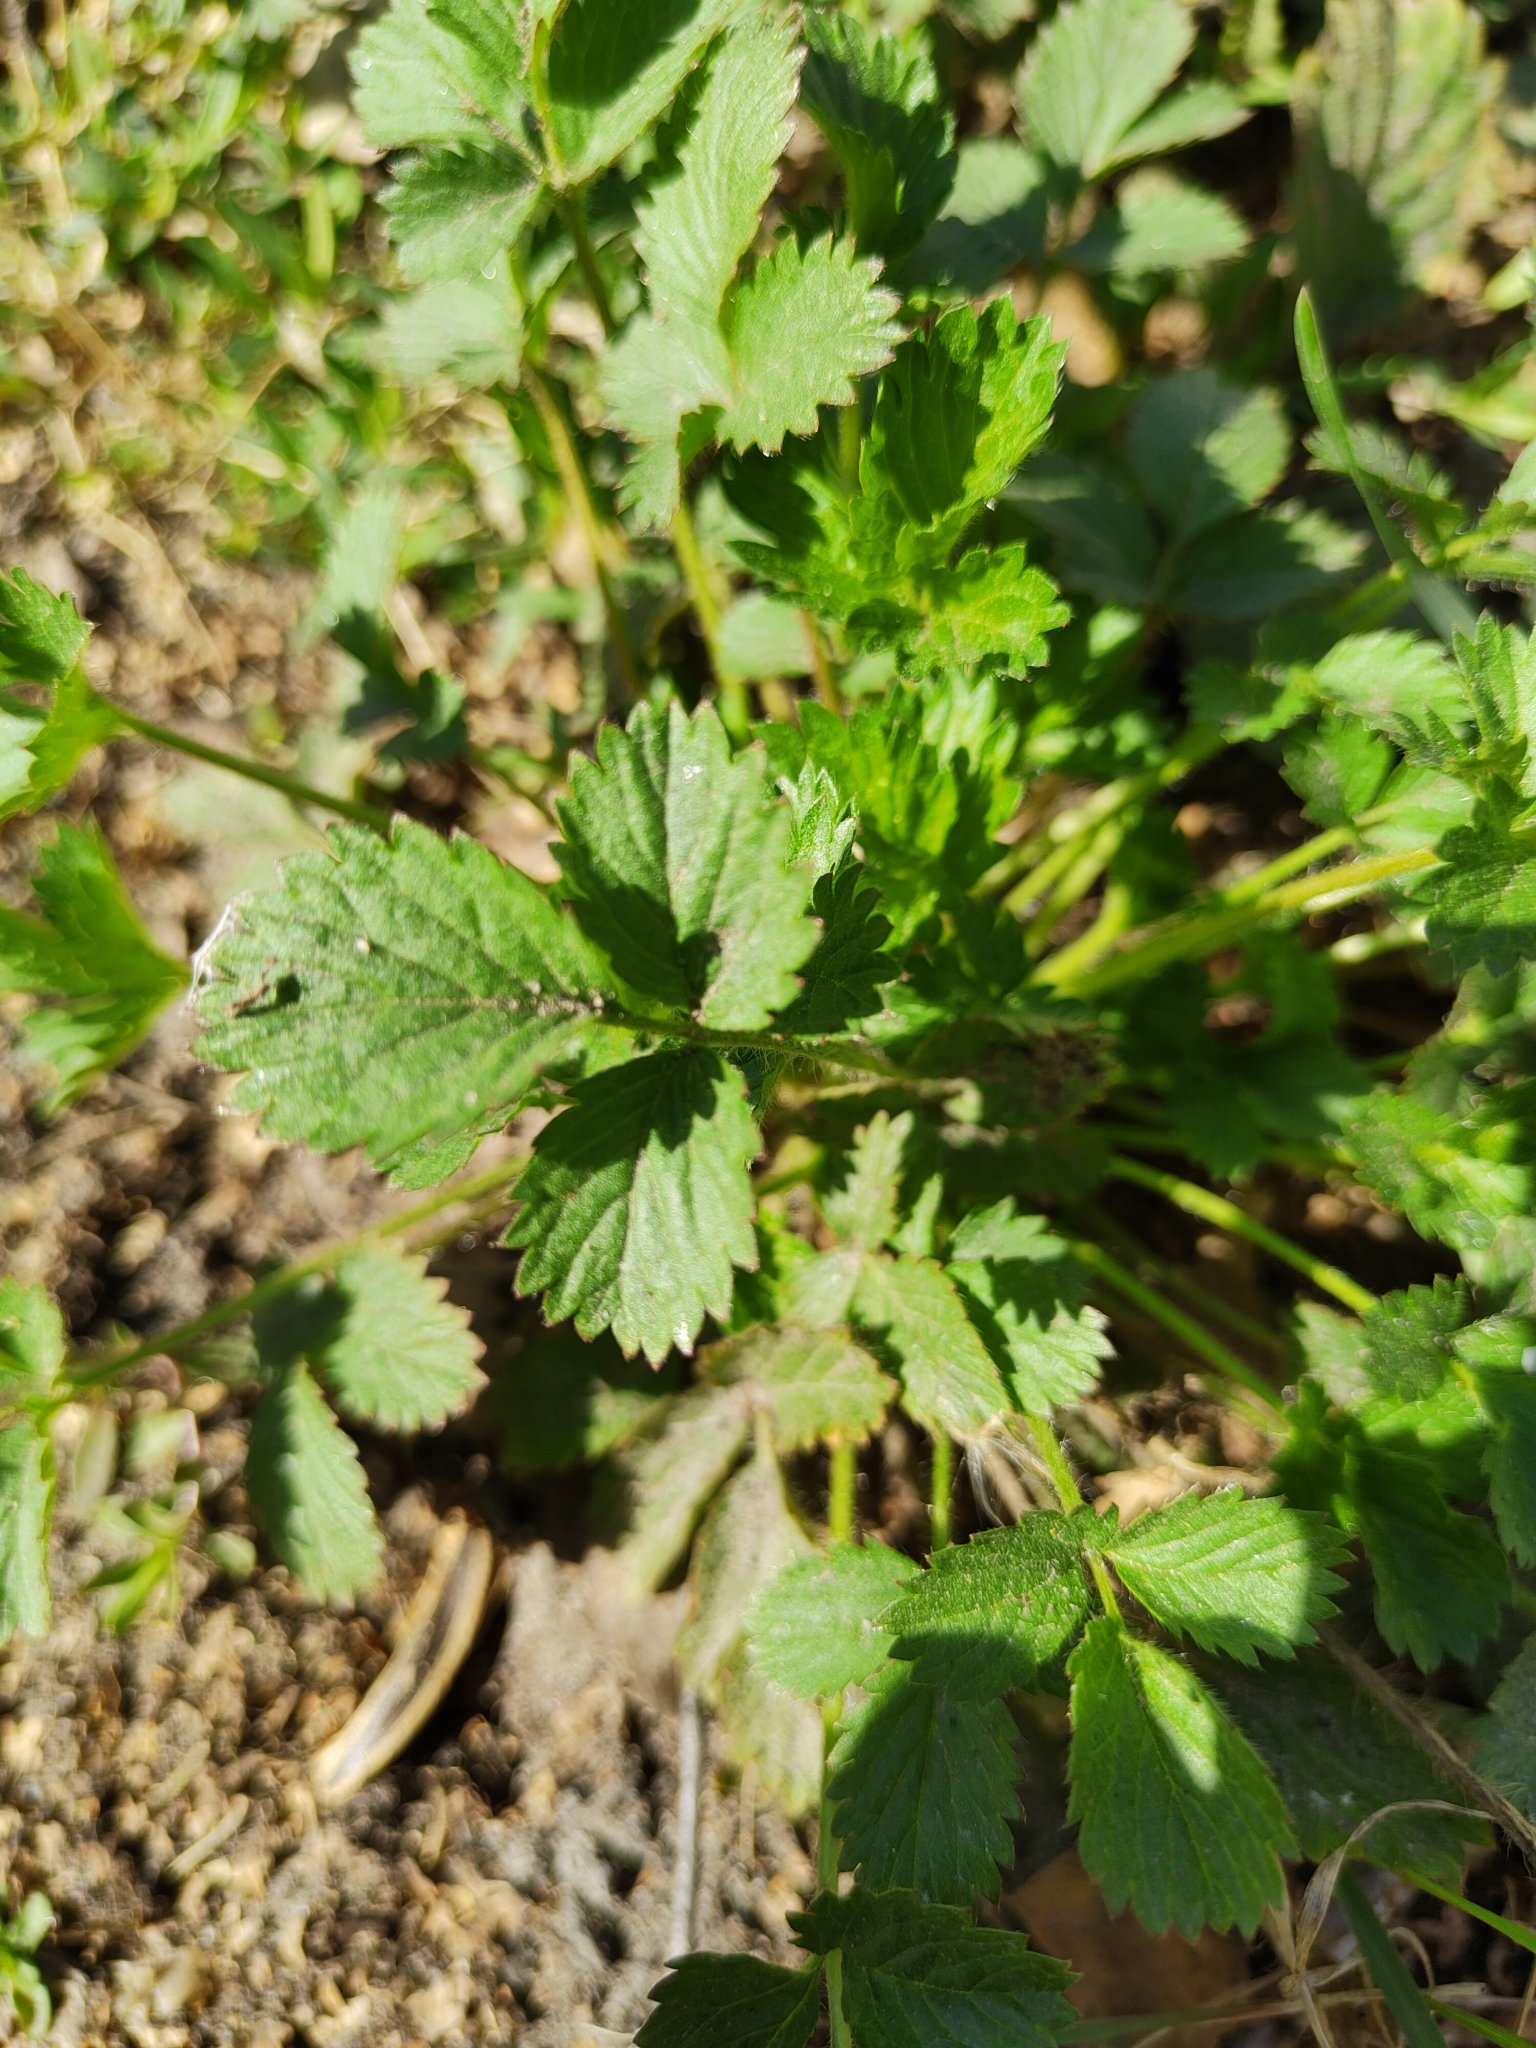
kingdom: Plantae
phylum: Tracheophyta
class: Magnoliopsida
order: Rosales
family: Rosaceae
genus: Potentilla
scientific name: Potentilla norvegica
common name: Ternate-leaved cinquefoil
